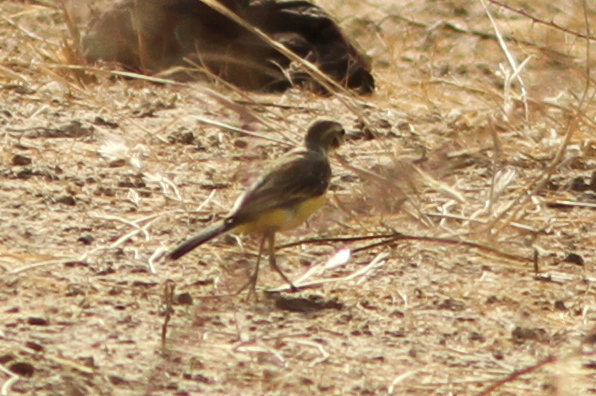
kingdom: Animalia
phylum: Chordata
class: Aves
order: Passeriformes
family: Motacillidae
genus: Motacilla
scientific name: Motacilla flava
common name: Western yellow wagtail
